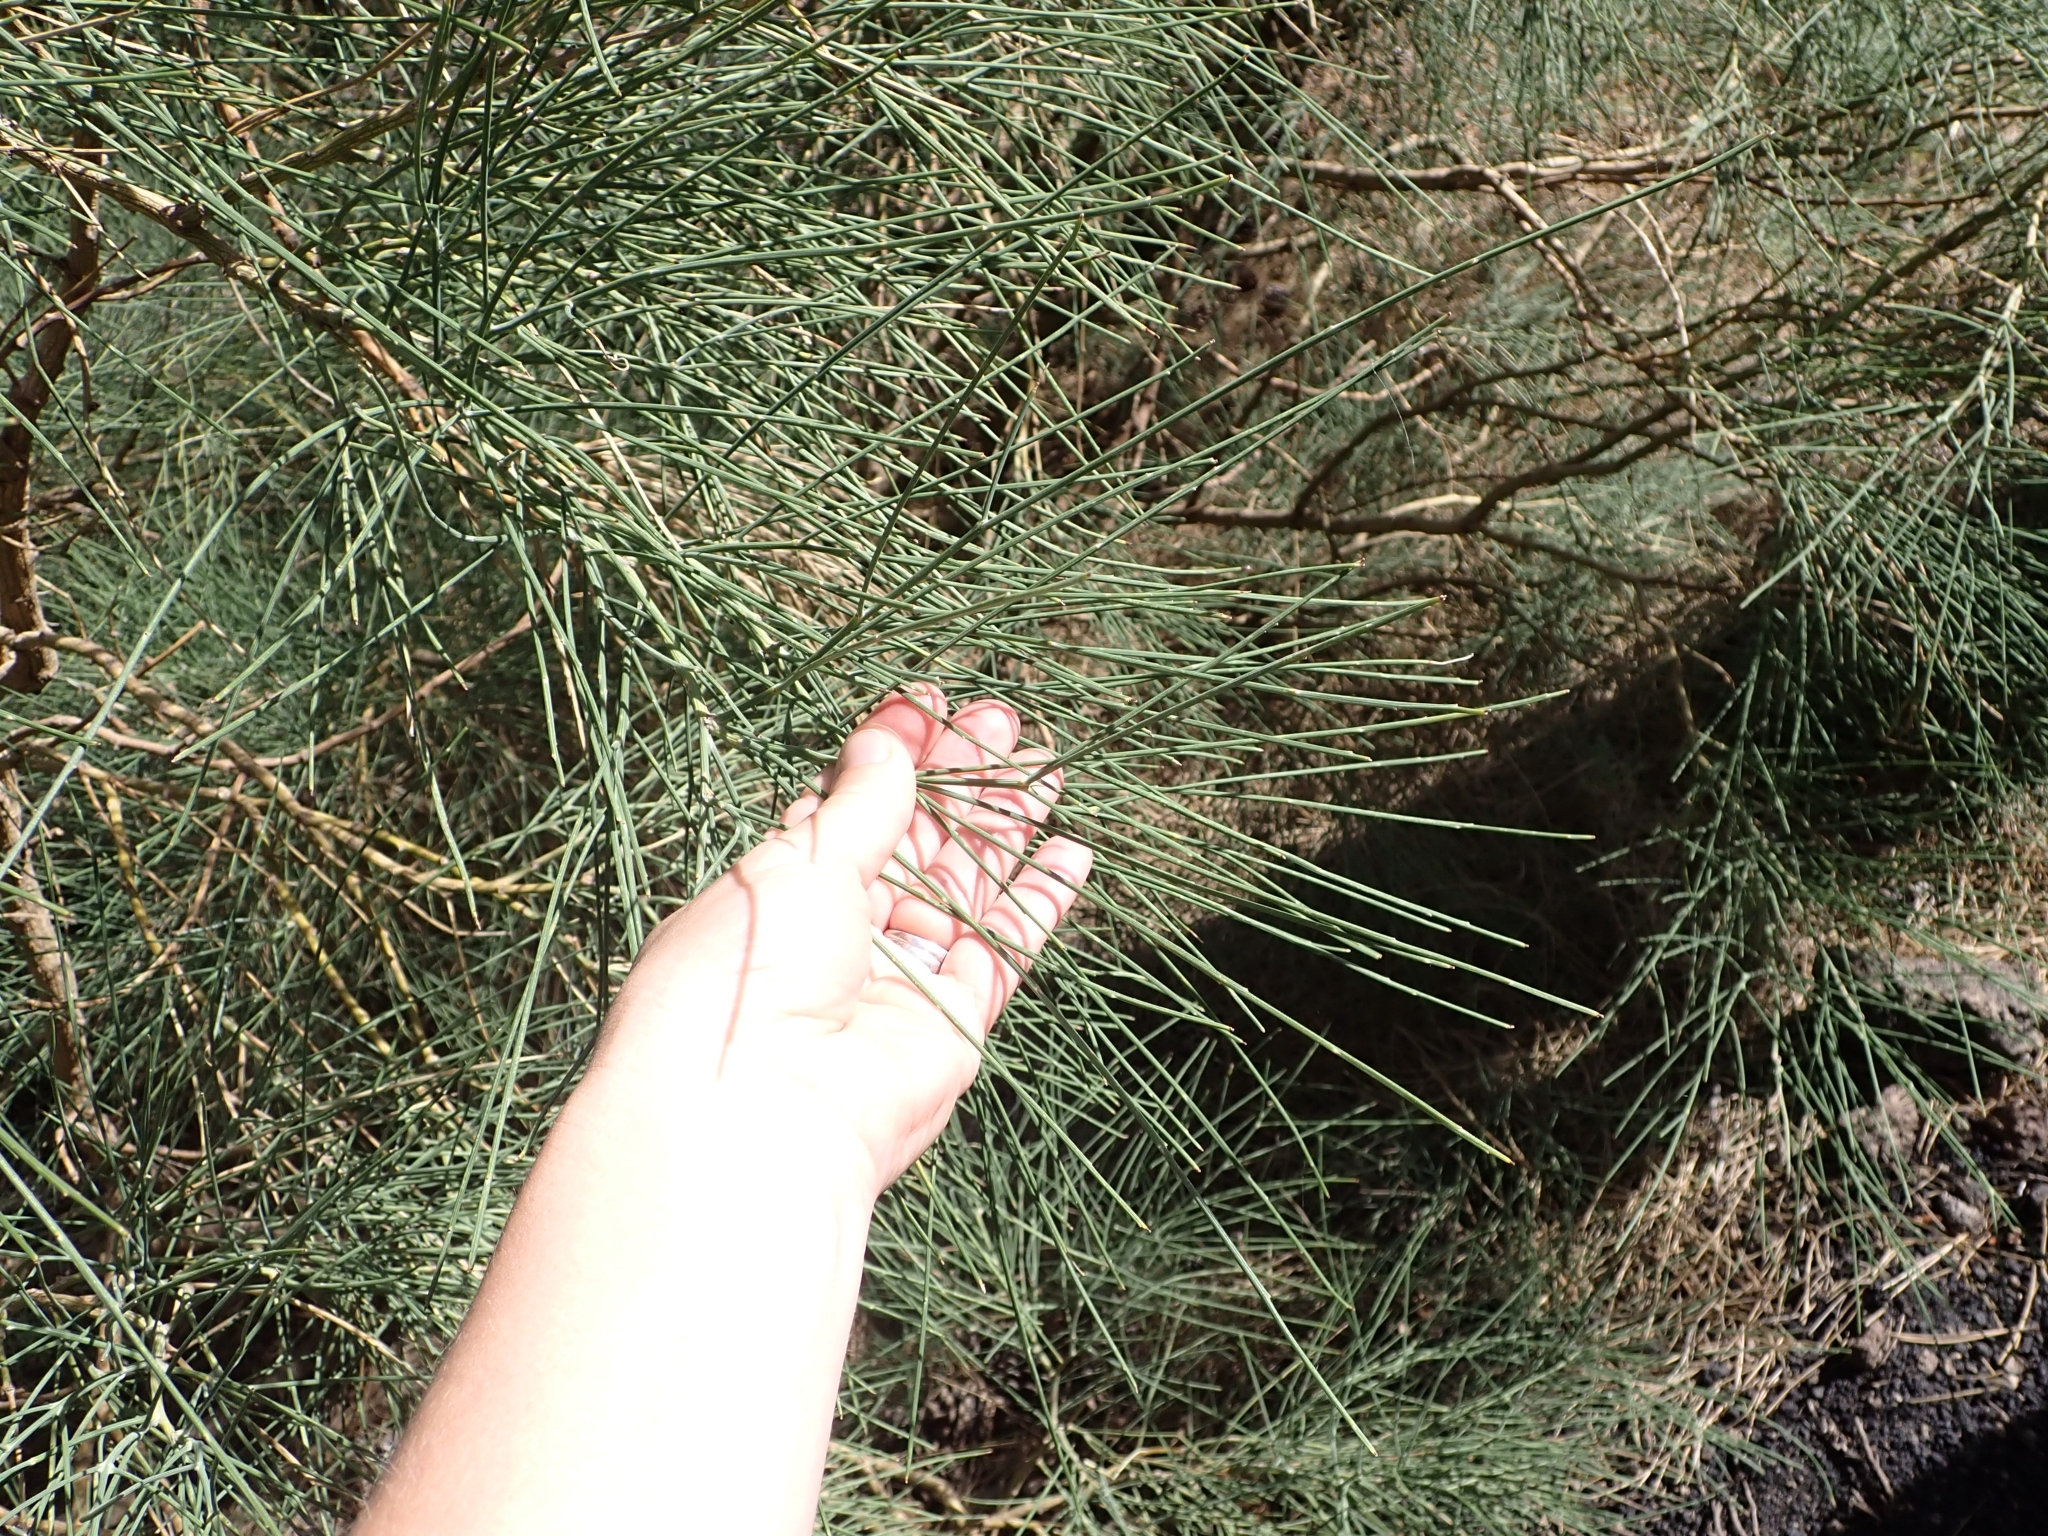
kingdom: Plantae
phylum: Tracheophyta
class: Magnoliopsida
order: Fabales
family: Fabaceae
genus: Genista
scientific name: Genista aetnensis
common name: Mount etna broom
